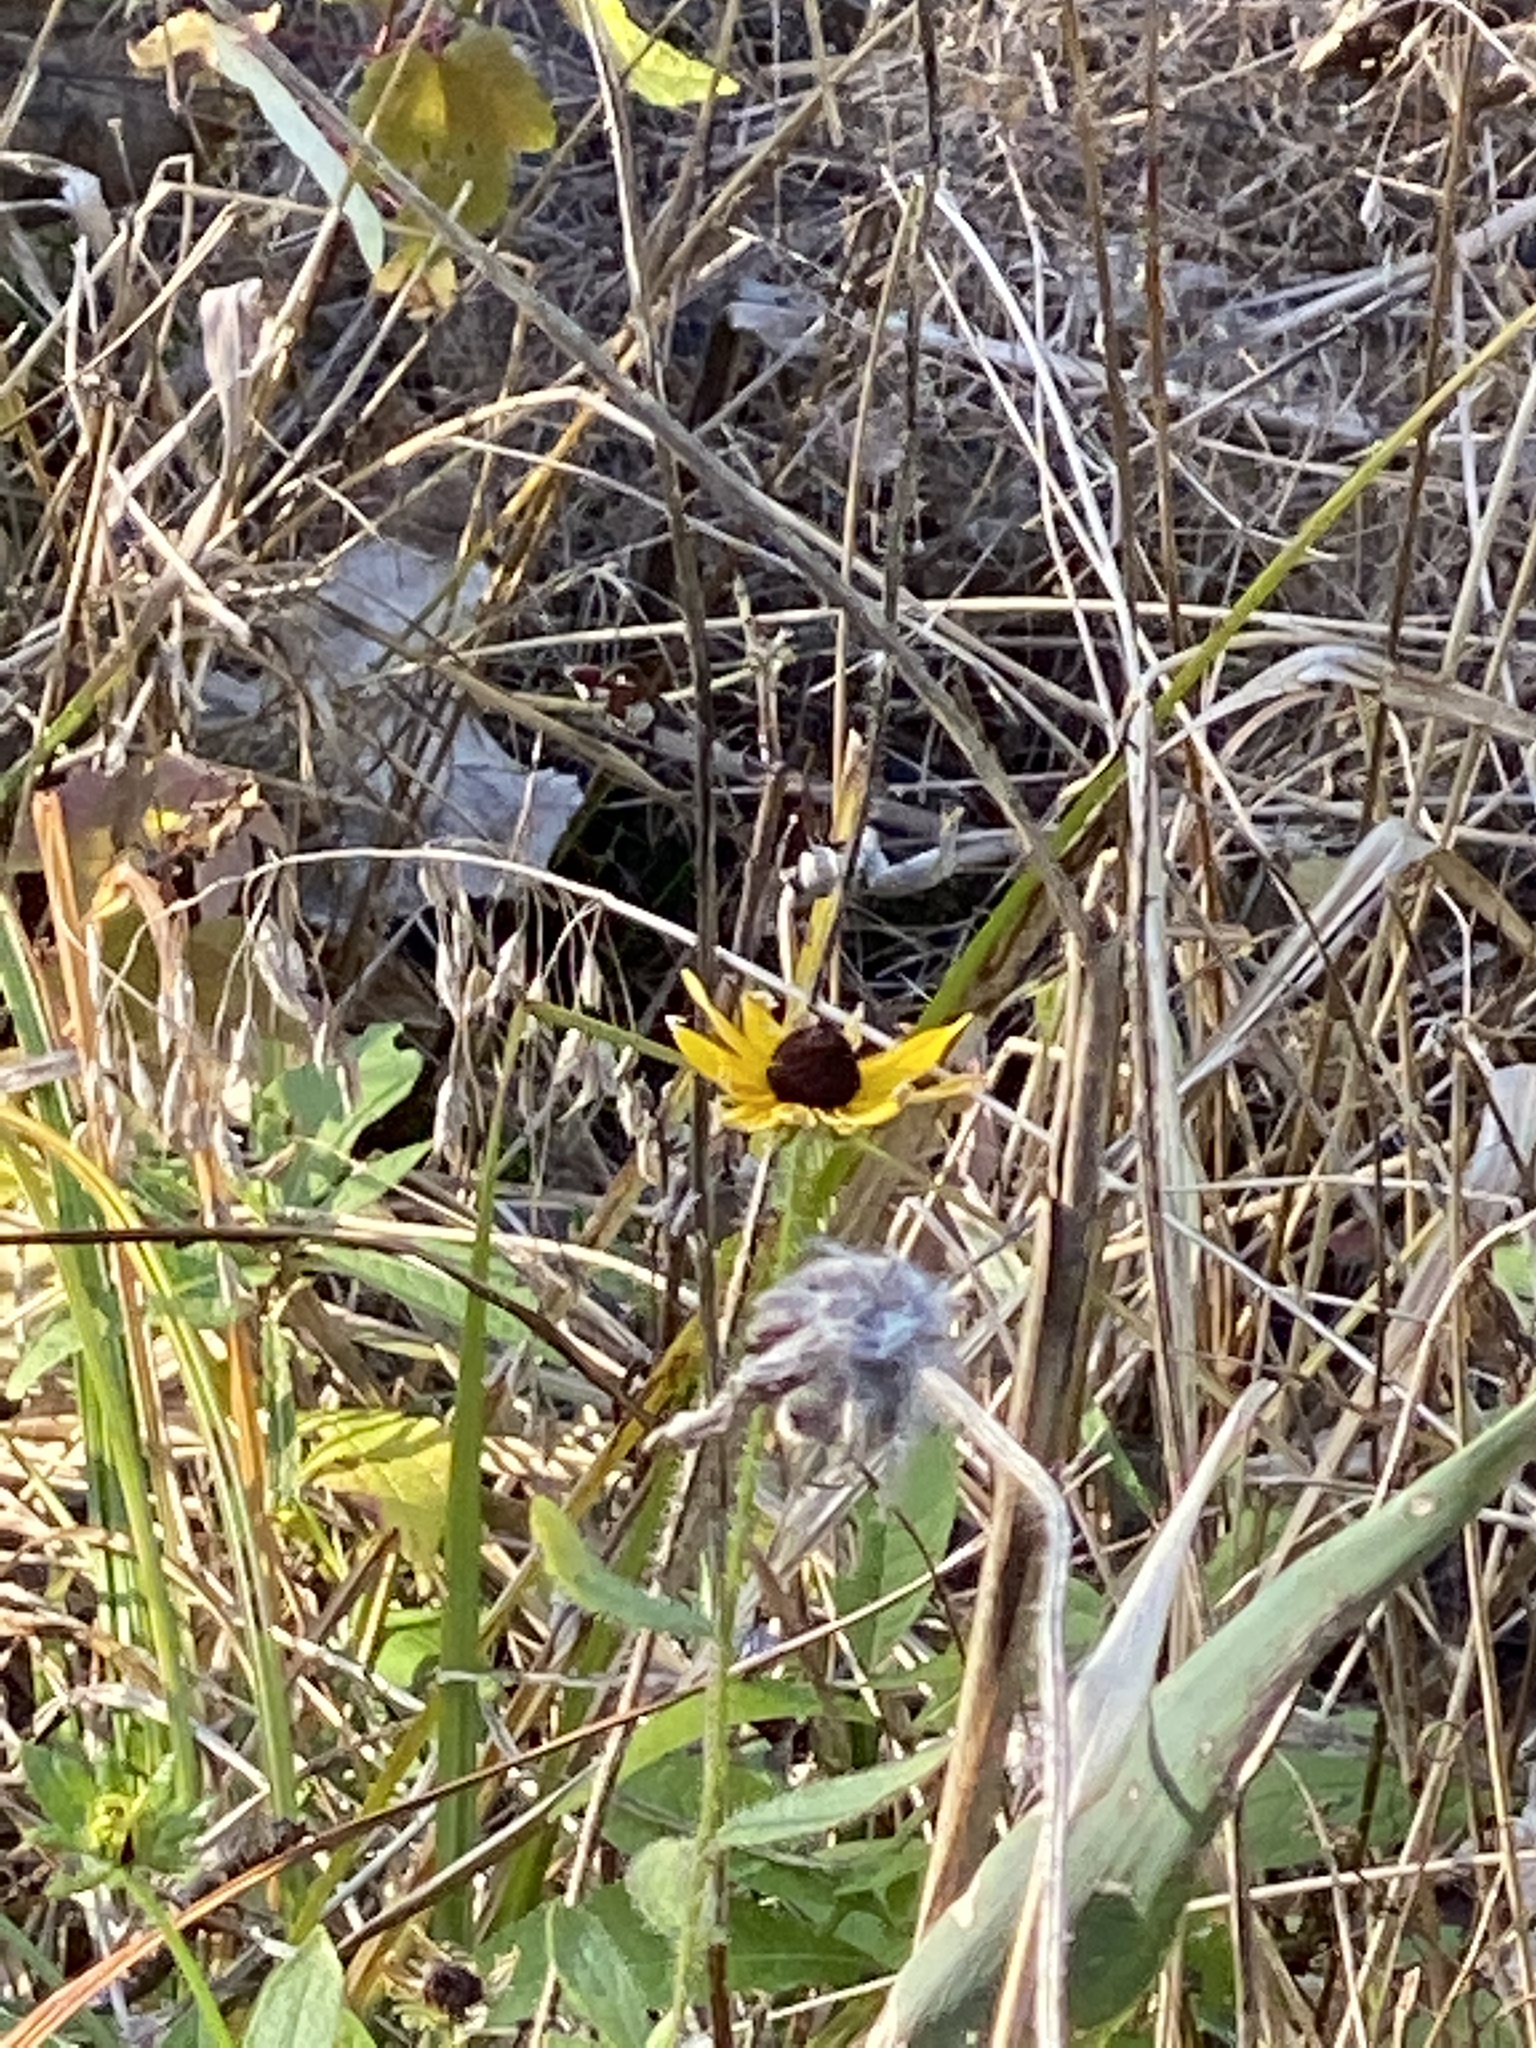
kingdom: Plantae
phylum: Tracheophyta
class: Magnoliopsida
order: Asterales
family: Asteraceae
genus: Rudbeckia
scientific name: Rudbeckia hirta
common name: Black-eyed-susan
